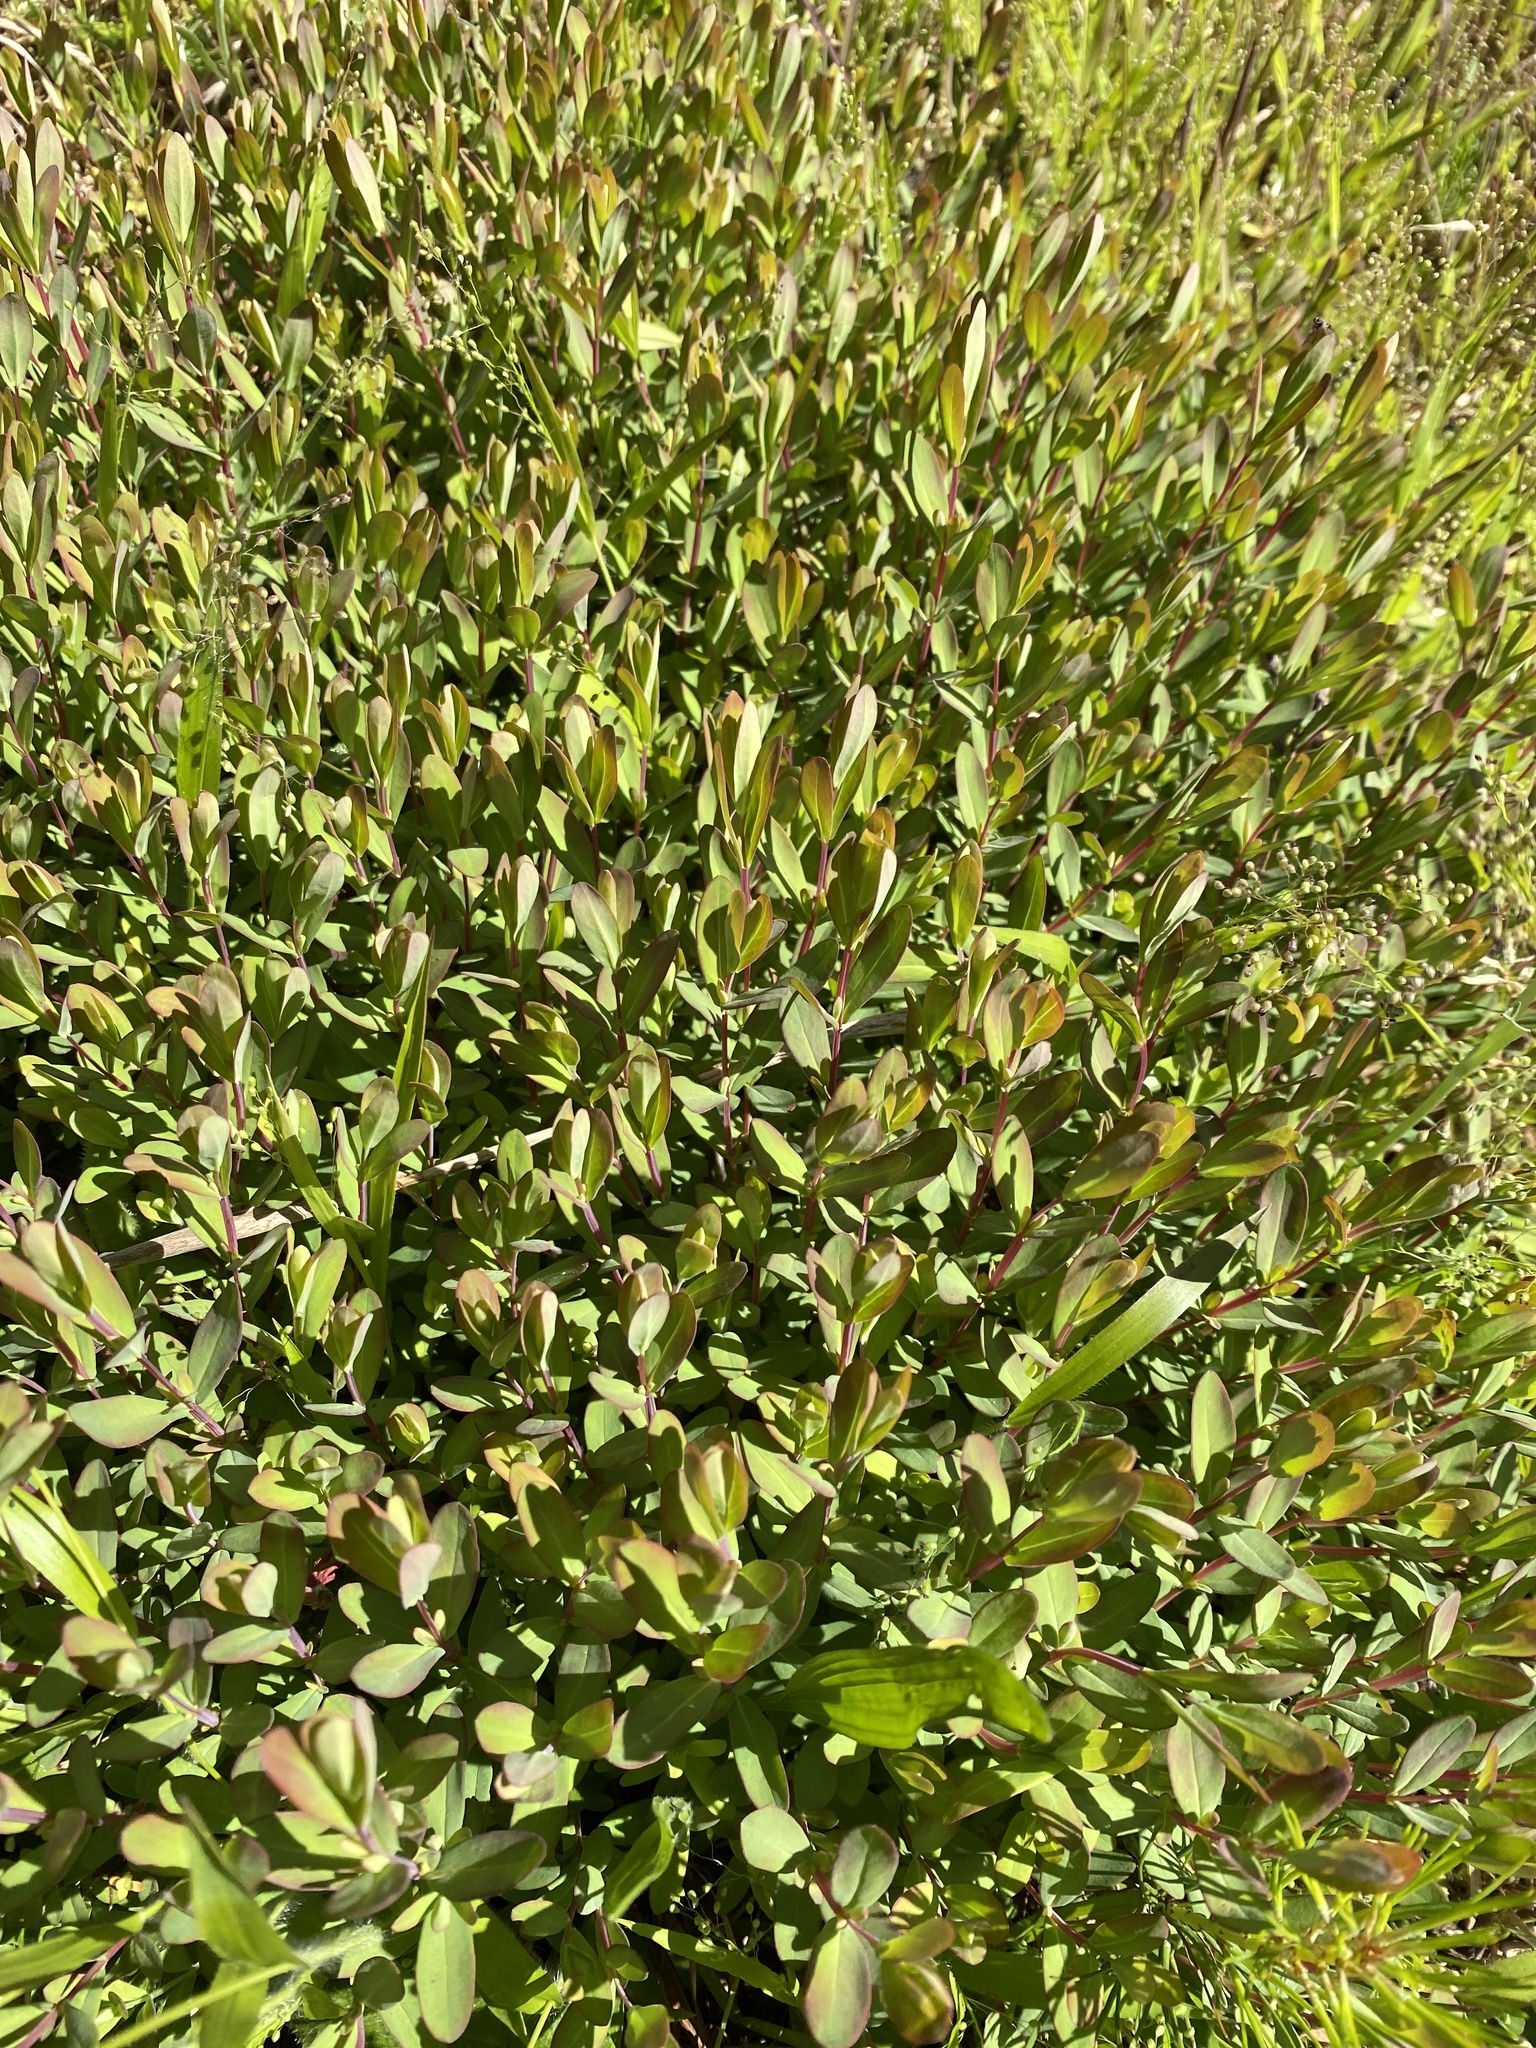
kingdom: Plantae
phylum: Tracheophyta
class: Magnoliopsida
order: Malpighiales
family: Hypericaceae
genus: Hypericum
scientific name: Hypericum hypericoides
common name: St. andrew's cross
